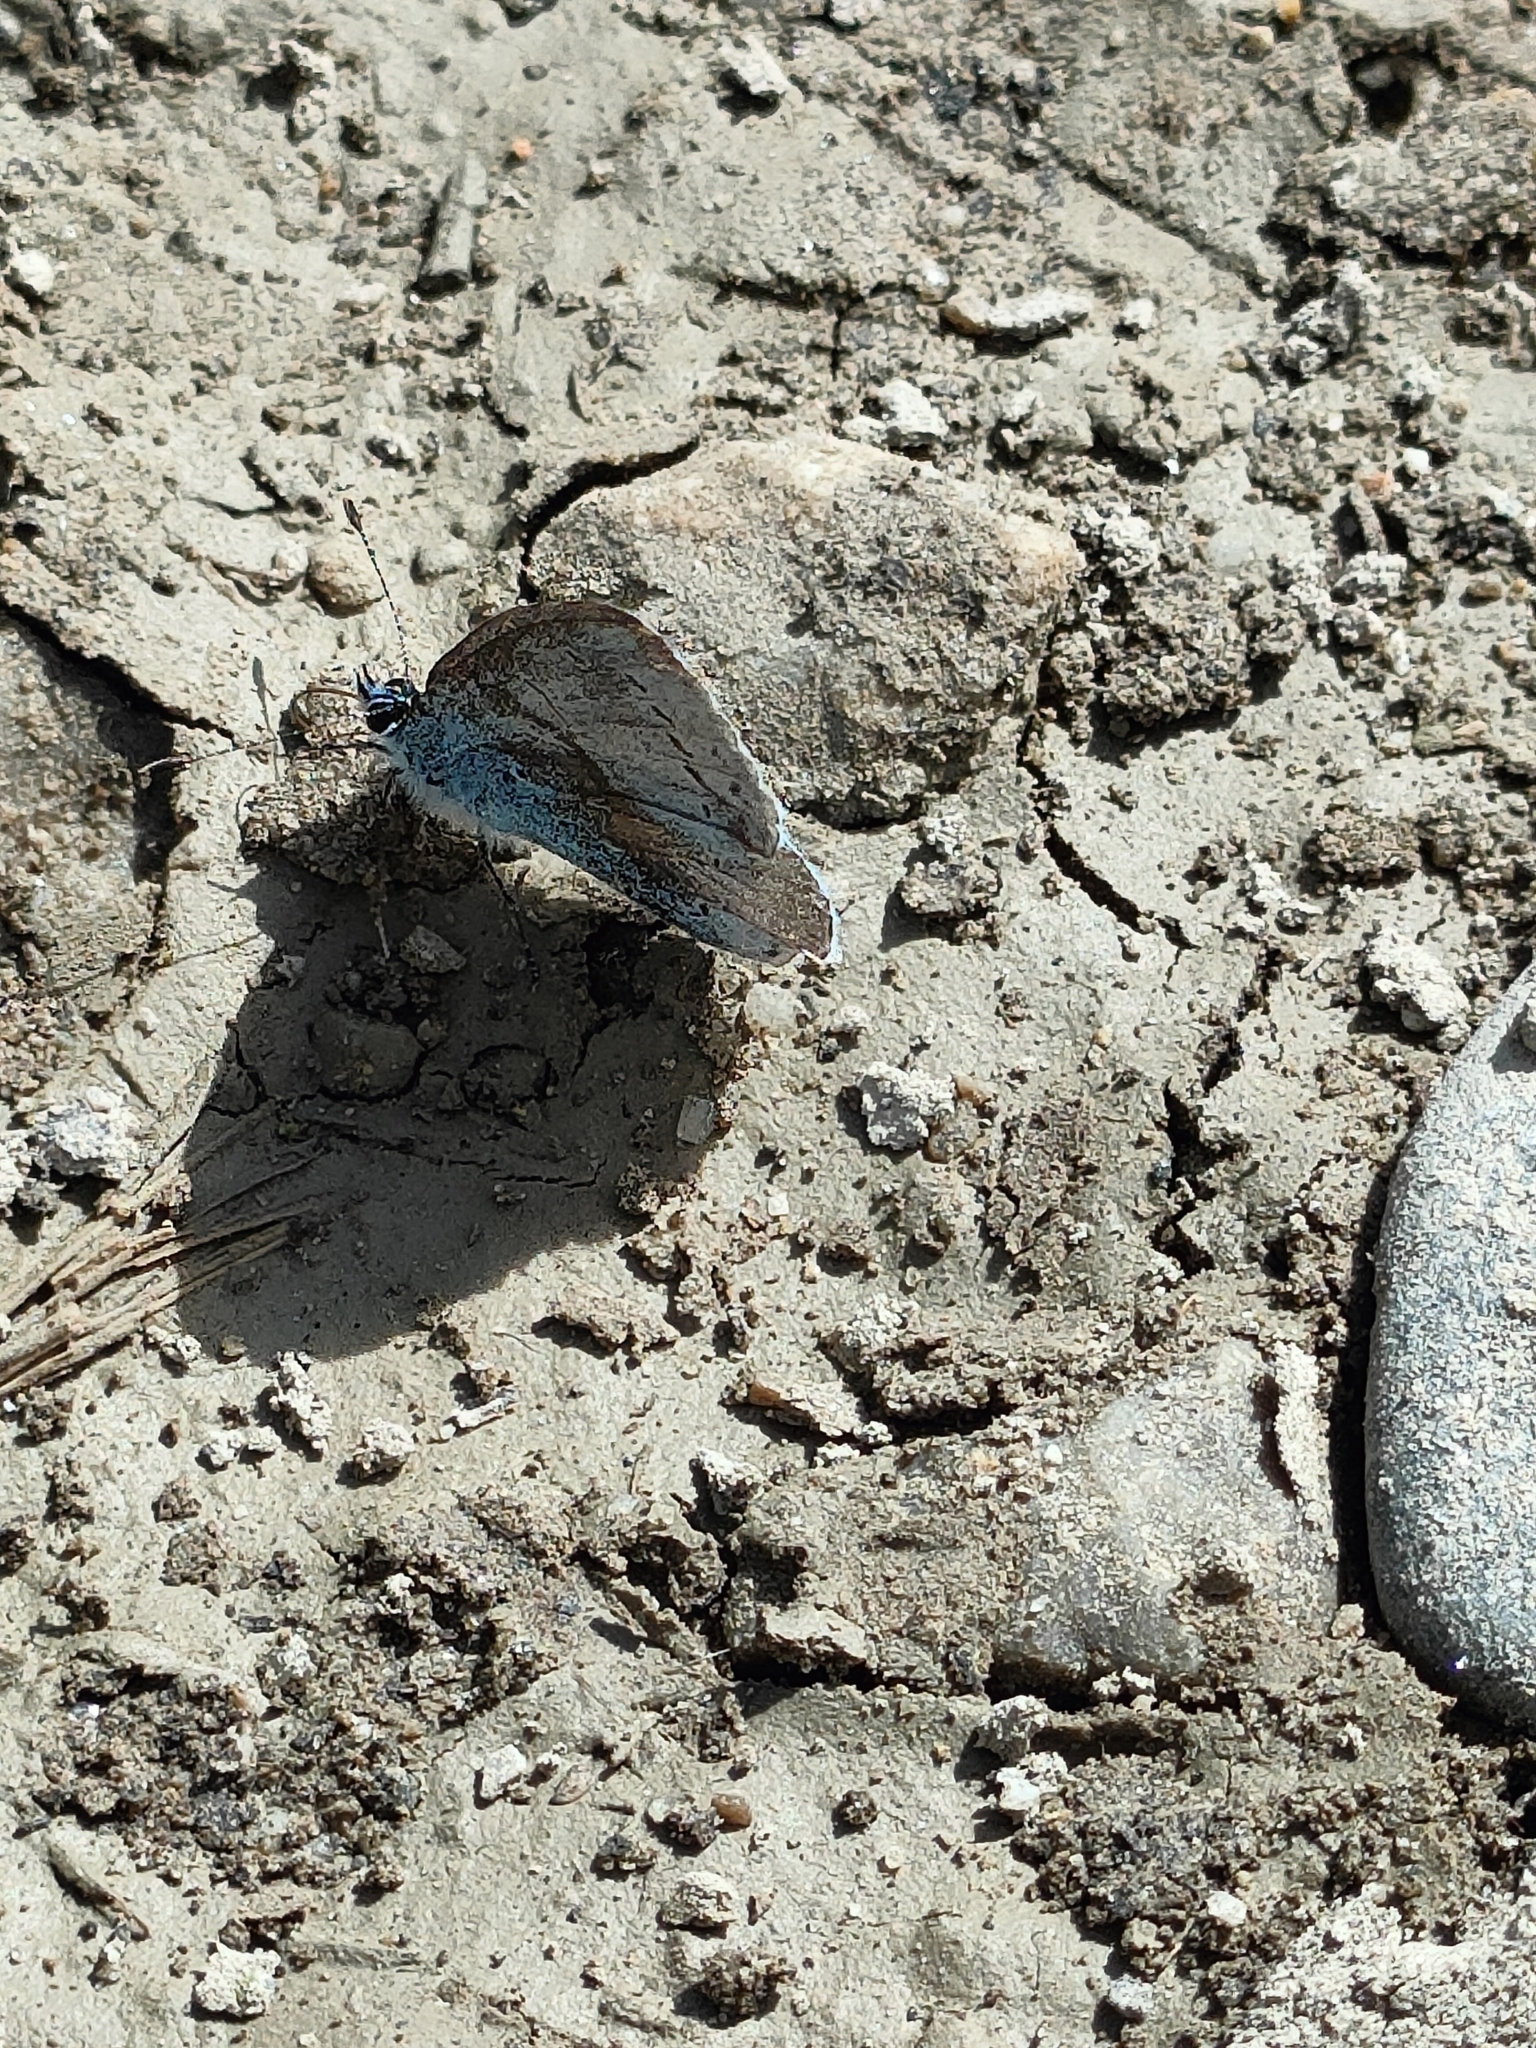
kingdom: Animalia
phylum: Arthropoda
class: Insecta
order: Lepidoptera
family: Lycaenidae
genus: Celastrina
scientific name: Celastrina argiolus
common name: Holly blue
